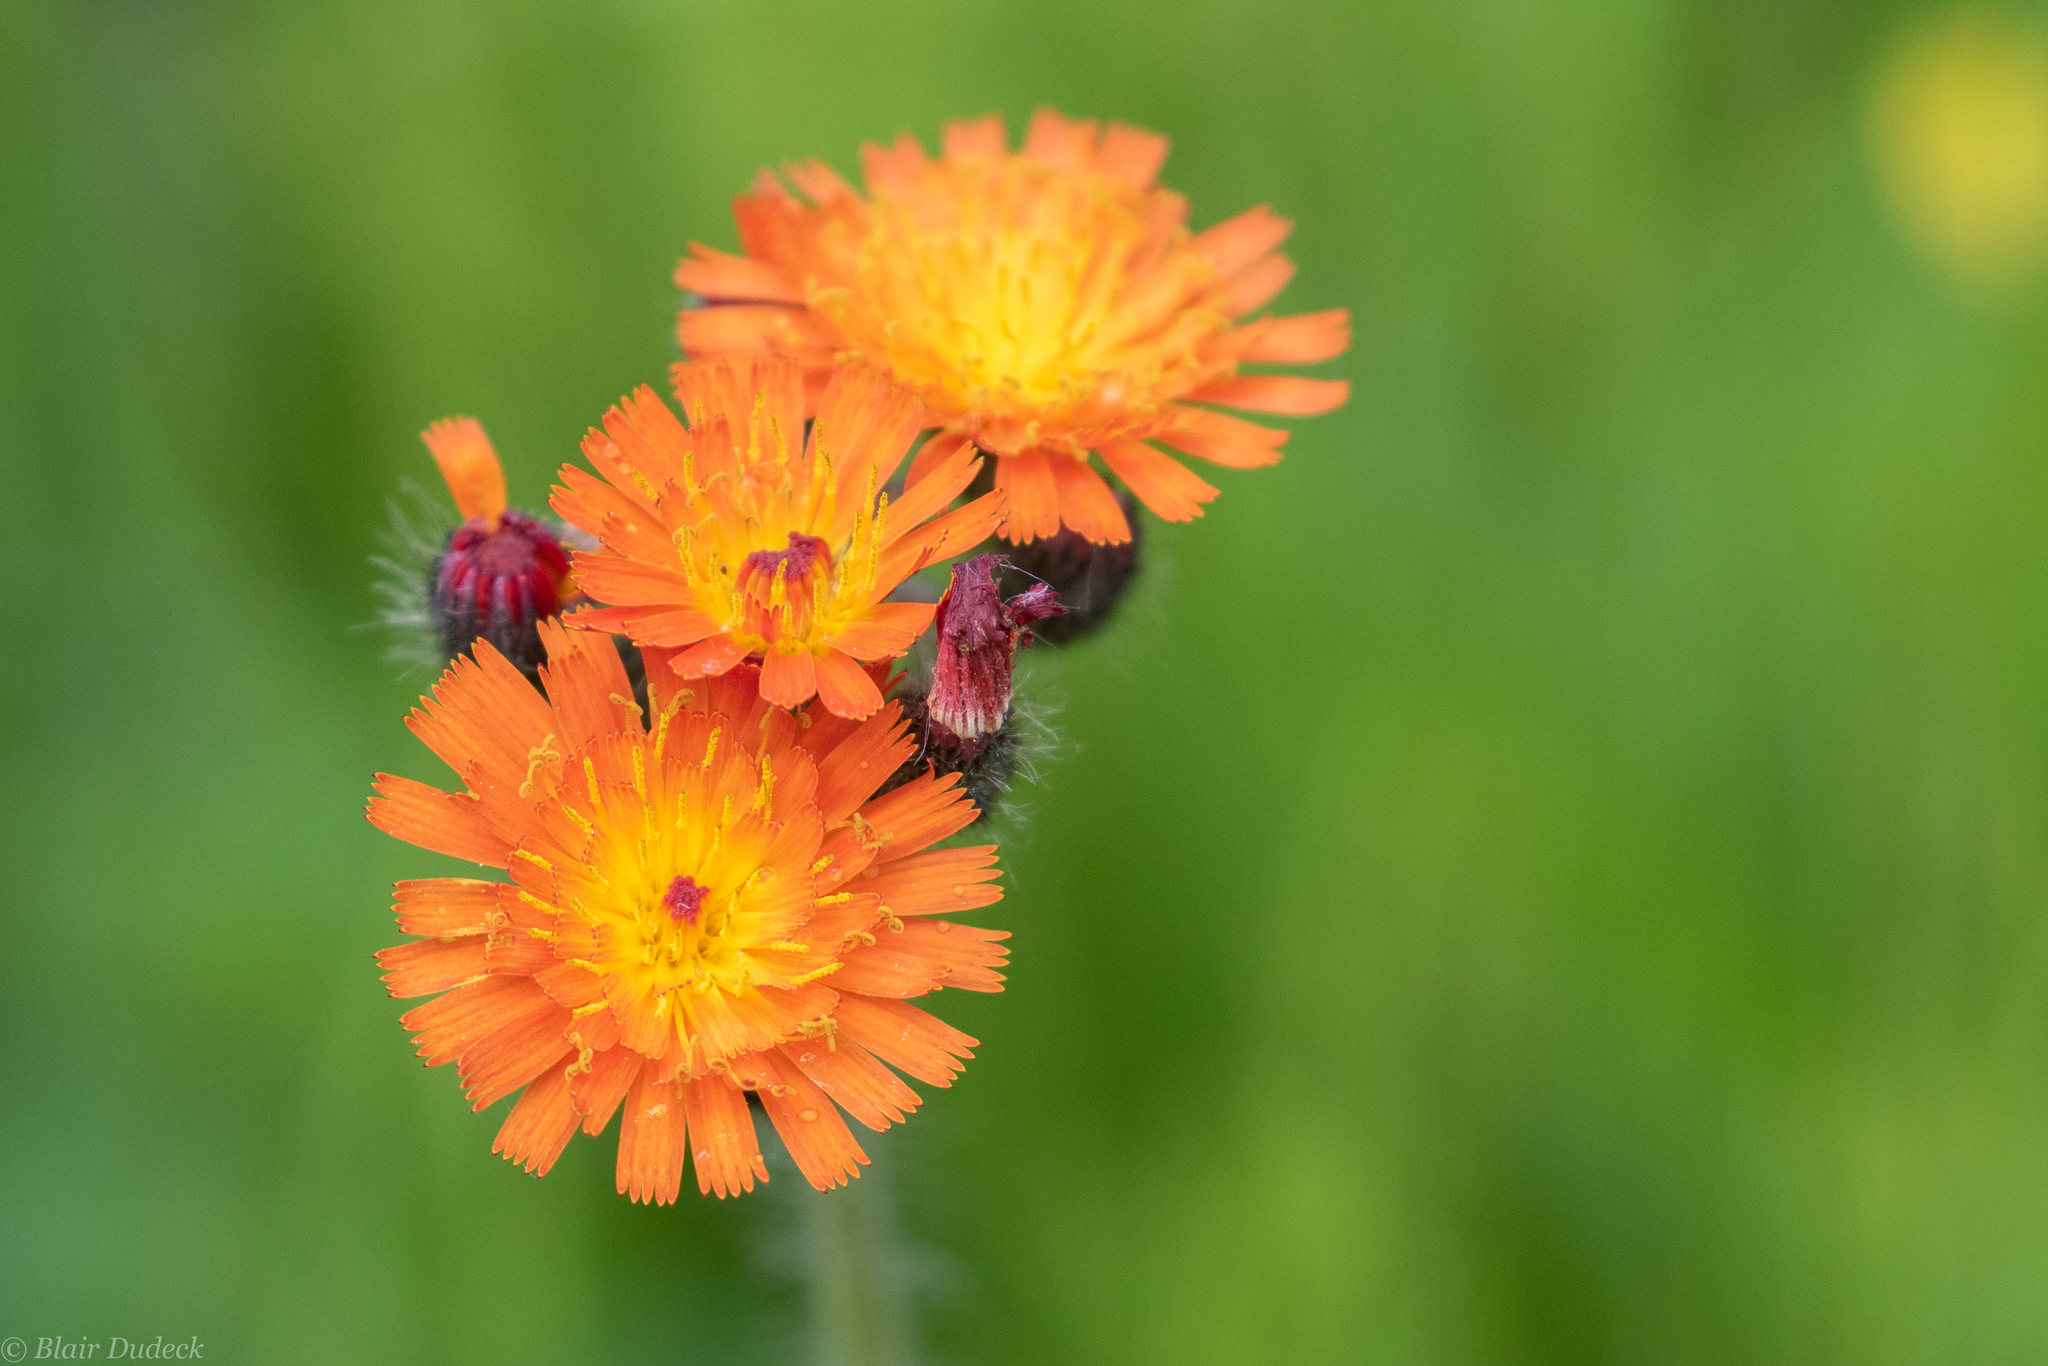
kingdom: Plantae
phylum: Tracheophyta
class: Magnoliopsida
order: Asterales
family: Asteraceae
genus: Pilosella
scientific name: Pilosella aurantiaca
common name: Fox-and-cubs
